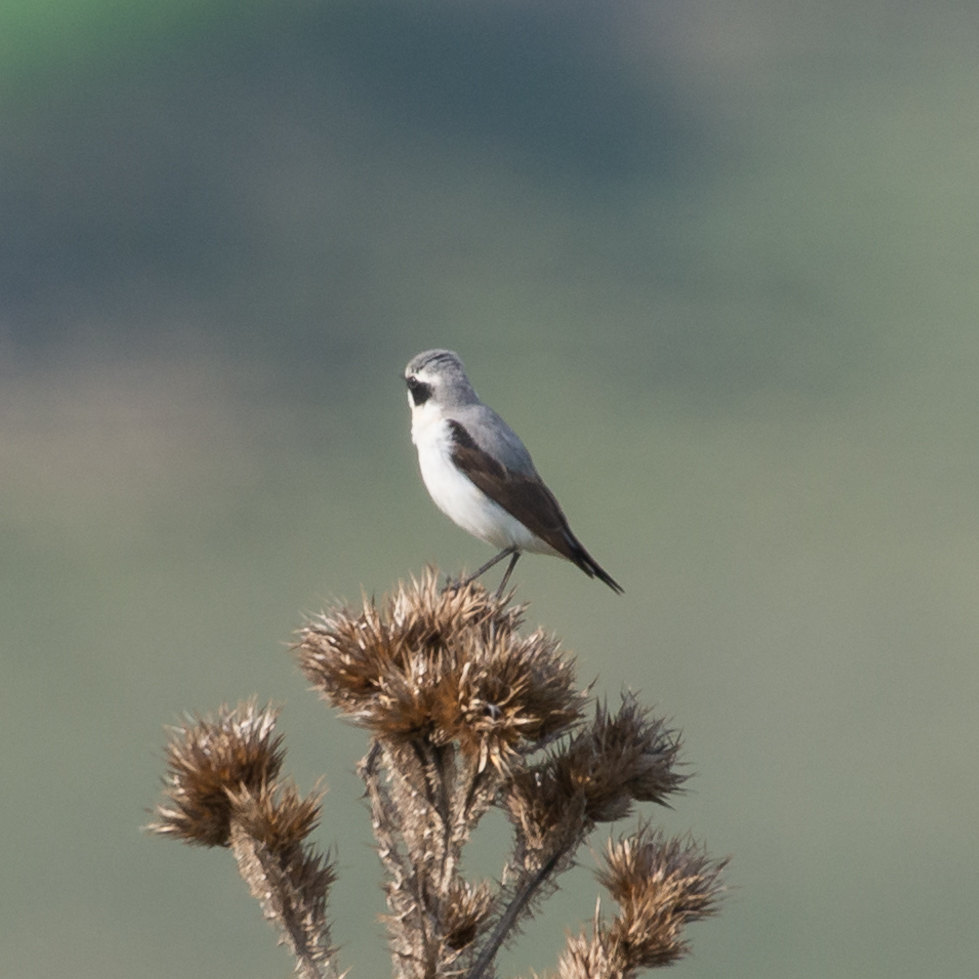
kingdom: Animalia
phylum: Chordata
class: Aves
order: Passeriformes
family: Muscicapidae
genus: Oenanthe
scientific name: Oenanthe oenanthe
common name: Northern wheatear
